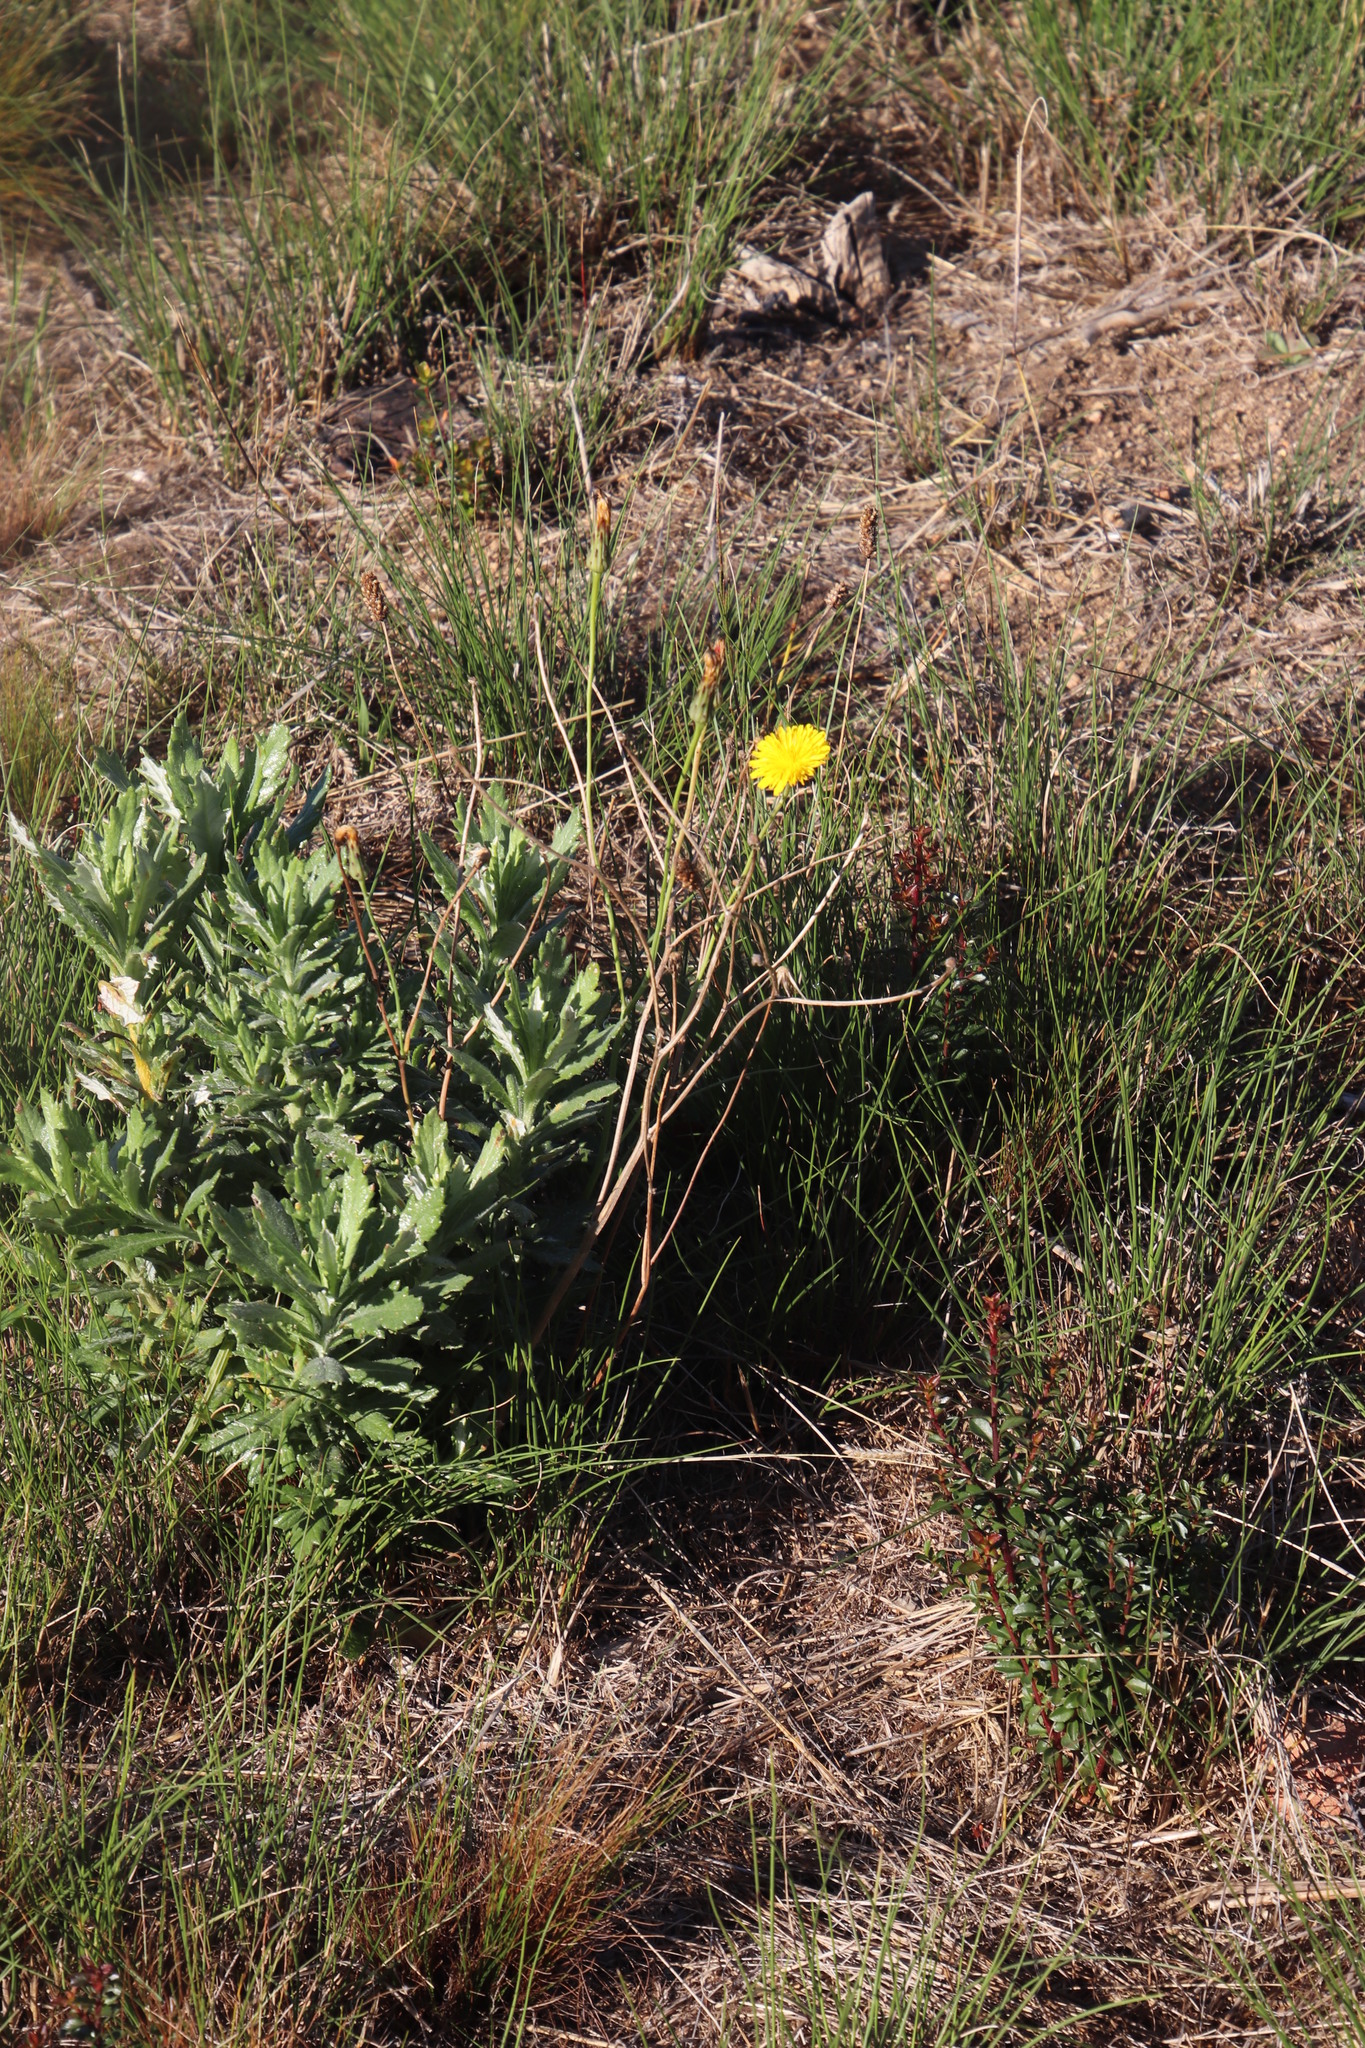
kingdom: Plantae
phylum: Tracheophyta
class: Magnoliopsida
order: Asterales
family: Asteraceae
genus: Hypochaeris
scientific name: Hypochaeris radicata
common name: Flatweed
